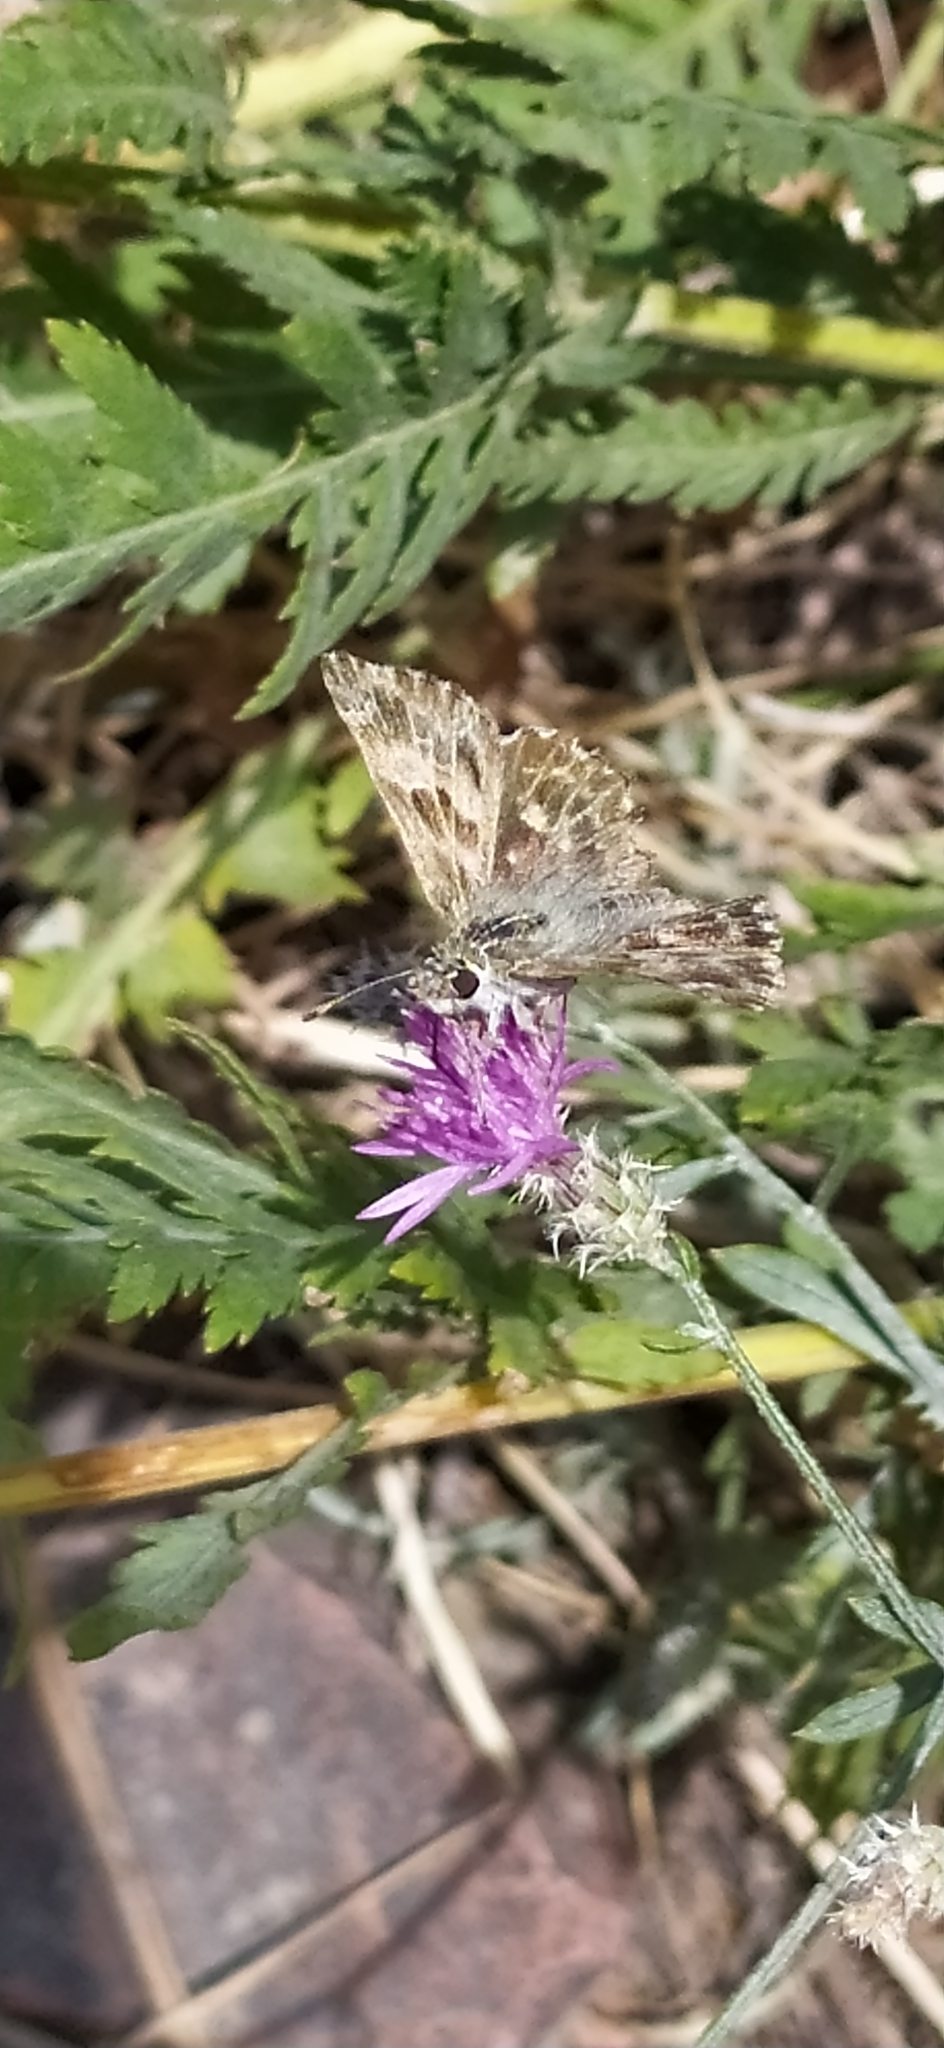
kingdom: Animalia
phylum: Arthropoda
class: Insecta
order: Lepidoptera
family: Hesperiidae
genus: Carcharodus
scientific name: Carcharodus alceae
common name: Mallow skipper
